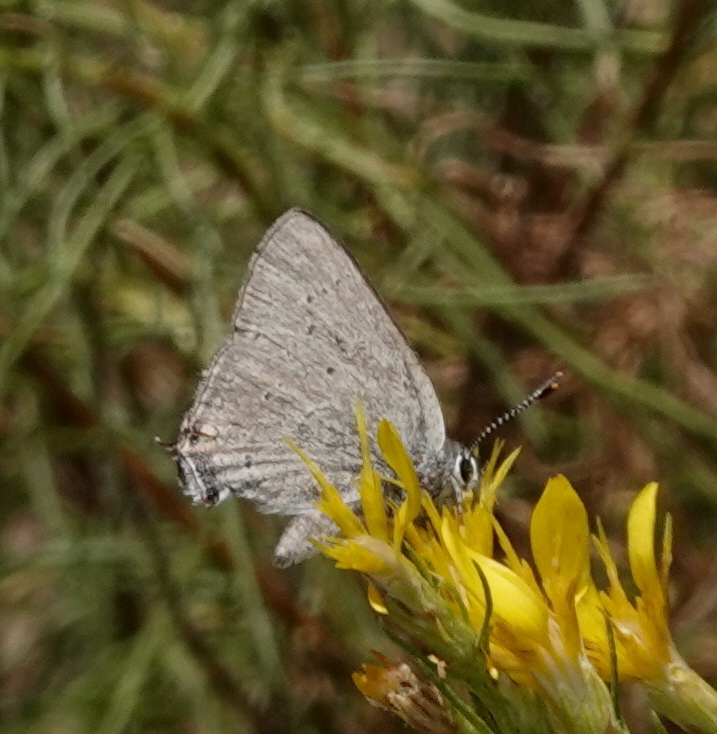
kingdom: Animalia
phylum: Arthropoda
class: Insecta
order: Lepidoptera
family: Lycaenidae
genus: Strymon
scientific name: Strymon sylvinus
